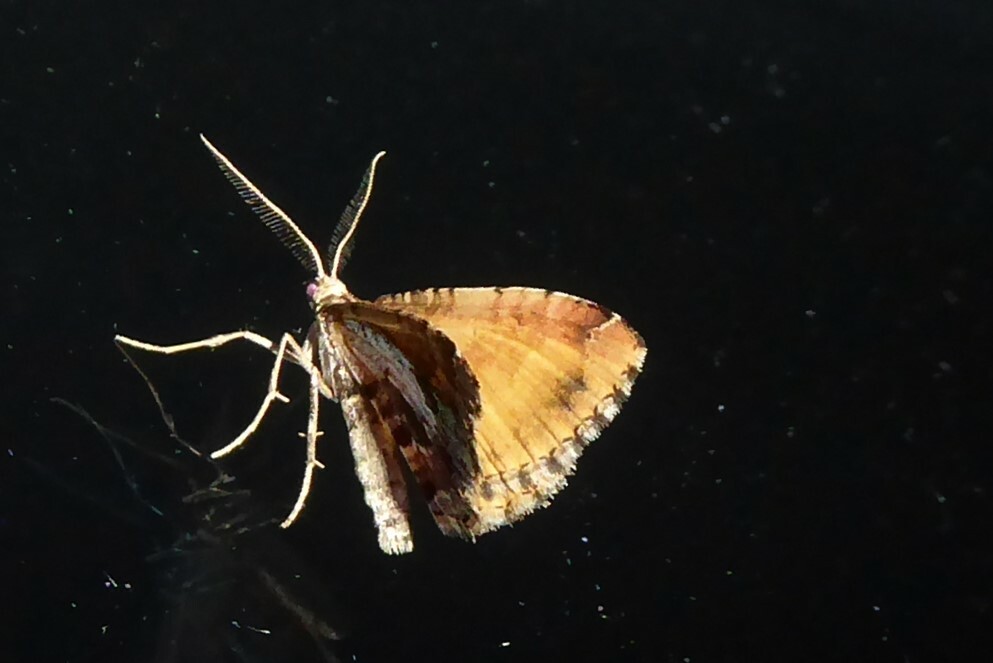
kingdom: Animalia
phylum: Arthropoda
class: Insecta
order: Lepidoptera
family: Geometridae
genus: Asaphodes
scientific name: Asaphodes aegrota
